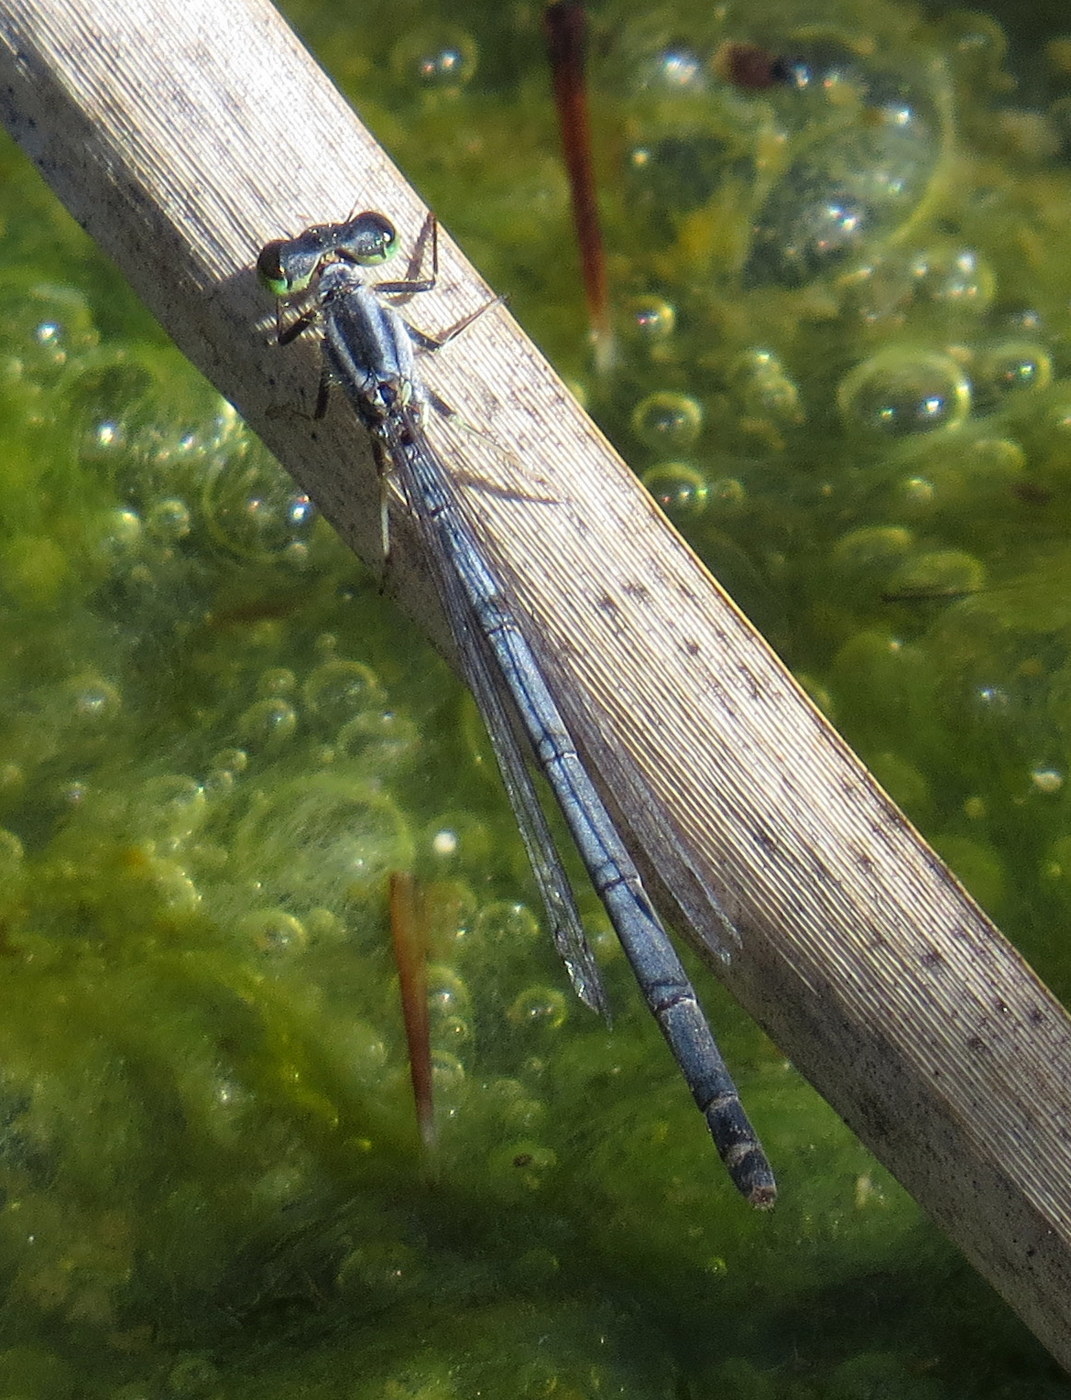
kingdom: Animalia
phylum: Arthropoda
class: Insecta
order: Odonata
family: Coenagrionidae
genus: Ischnura
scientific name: Ischnura verticalis
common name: Eastern forktail
